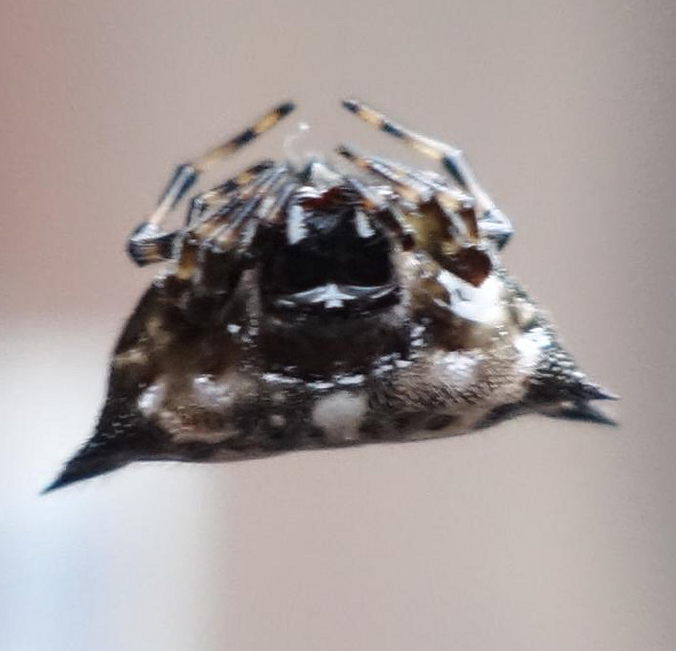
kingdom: Animalia
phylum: Arthropoda
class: Arachnida
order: Araneae
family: Araneidae
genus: Gasteracantha
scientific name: Gasteracantha kuhli
